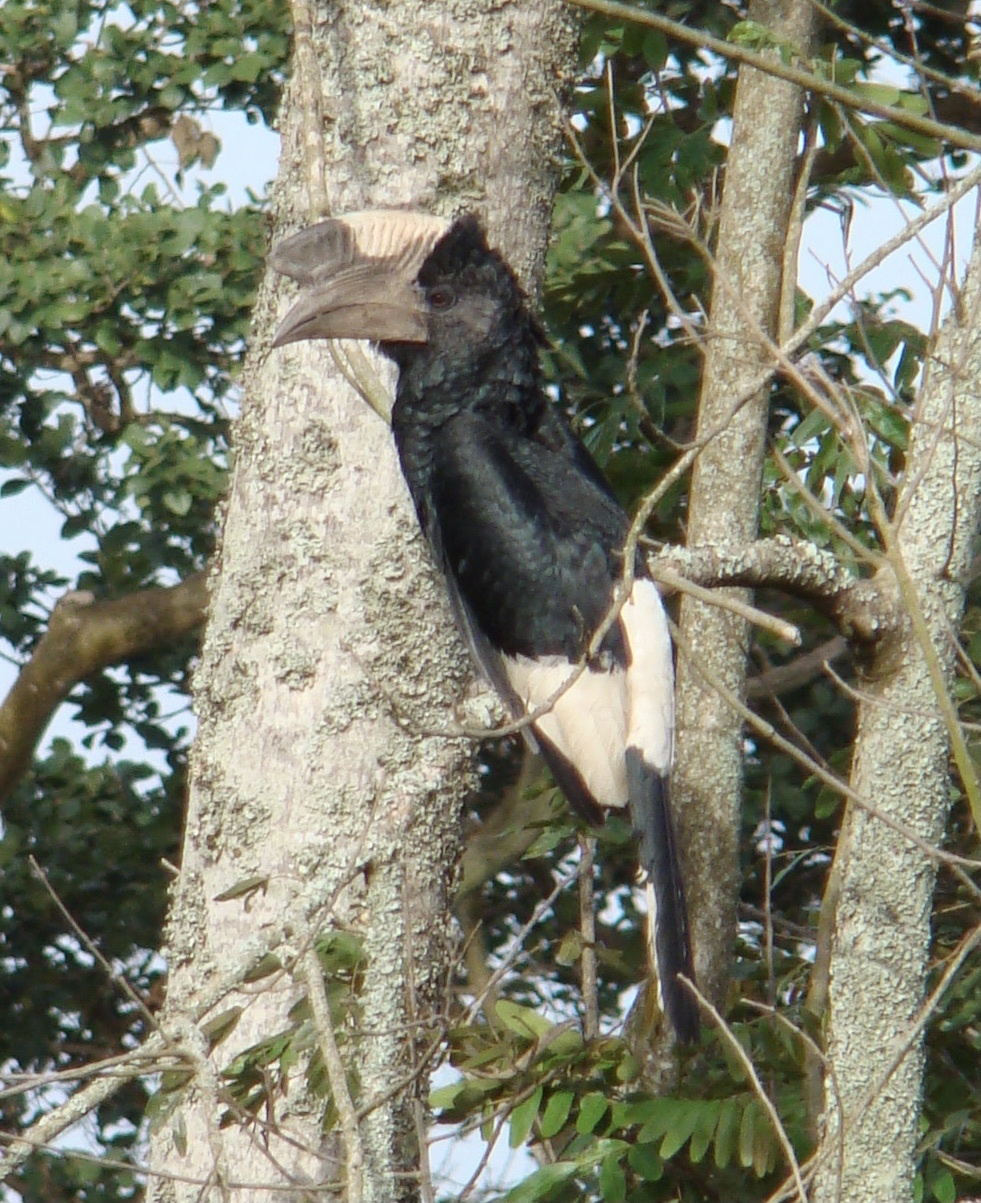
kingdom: Animalia
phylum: Chordata
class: Aves
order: Bucerotiformes
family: Bucerotidae
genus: Bycanistes
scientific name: Bycanistes subcylindricus
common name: Black-and-white-casqued hornbill
